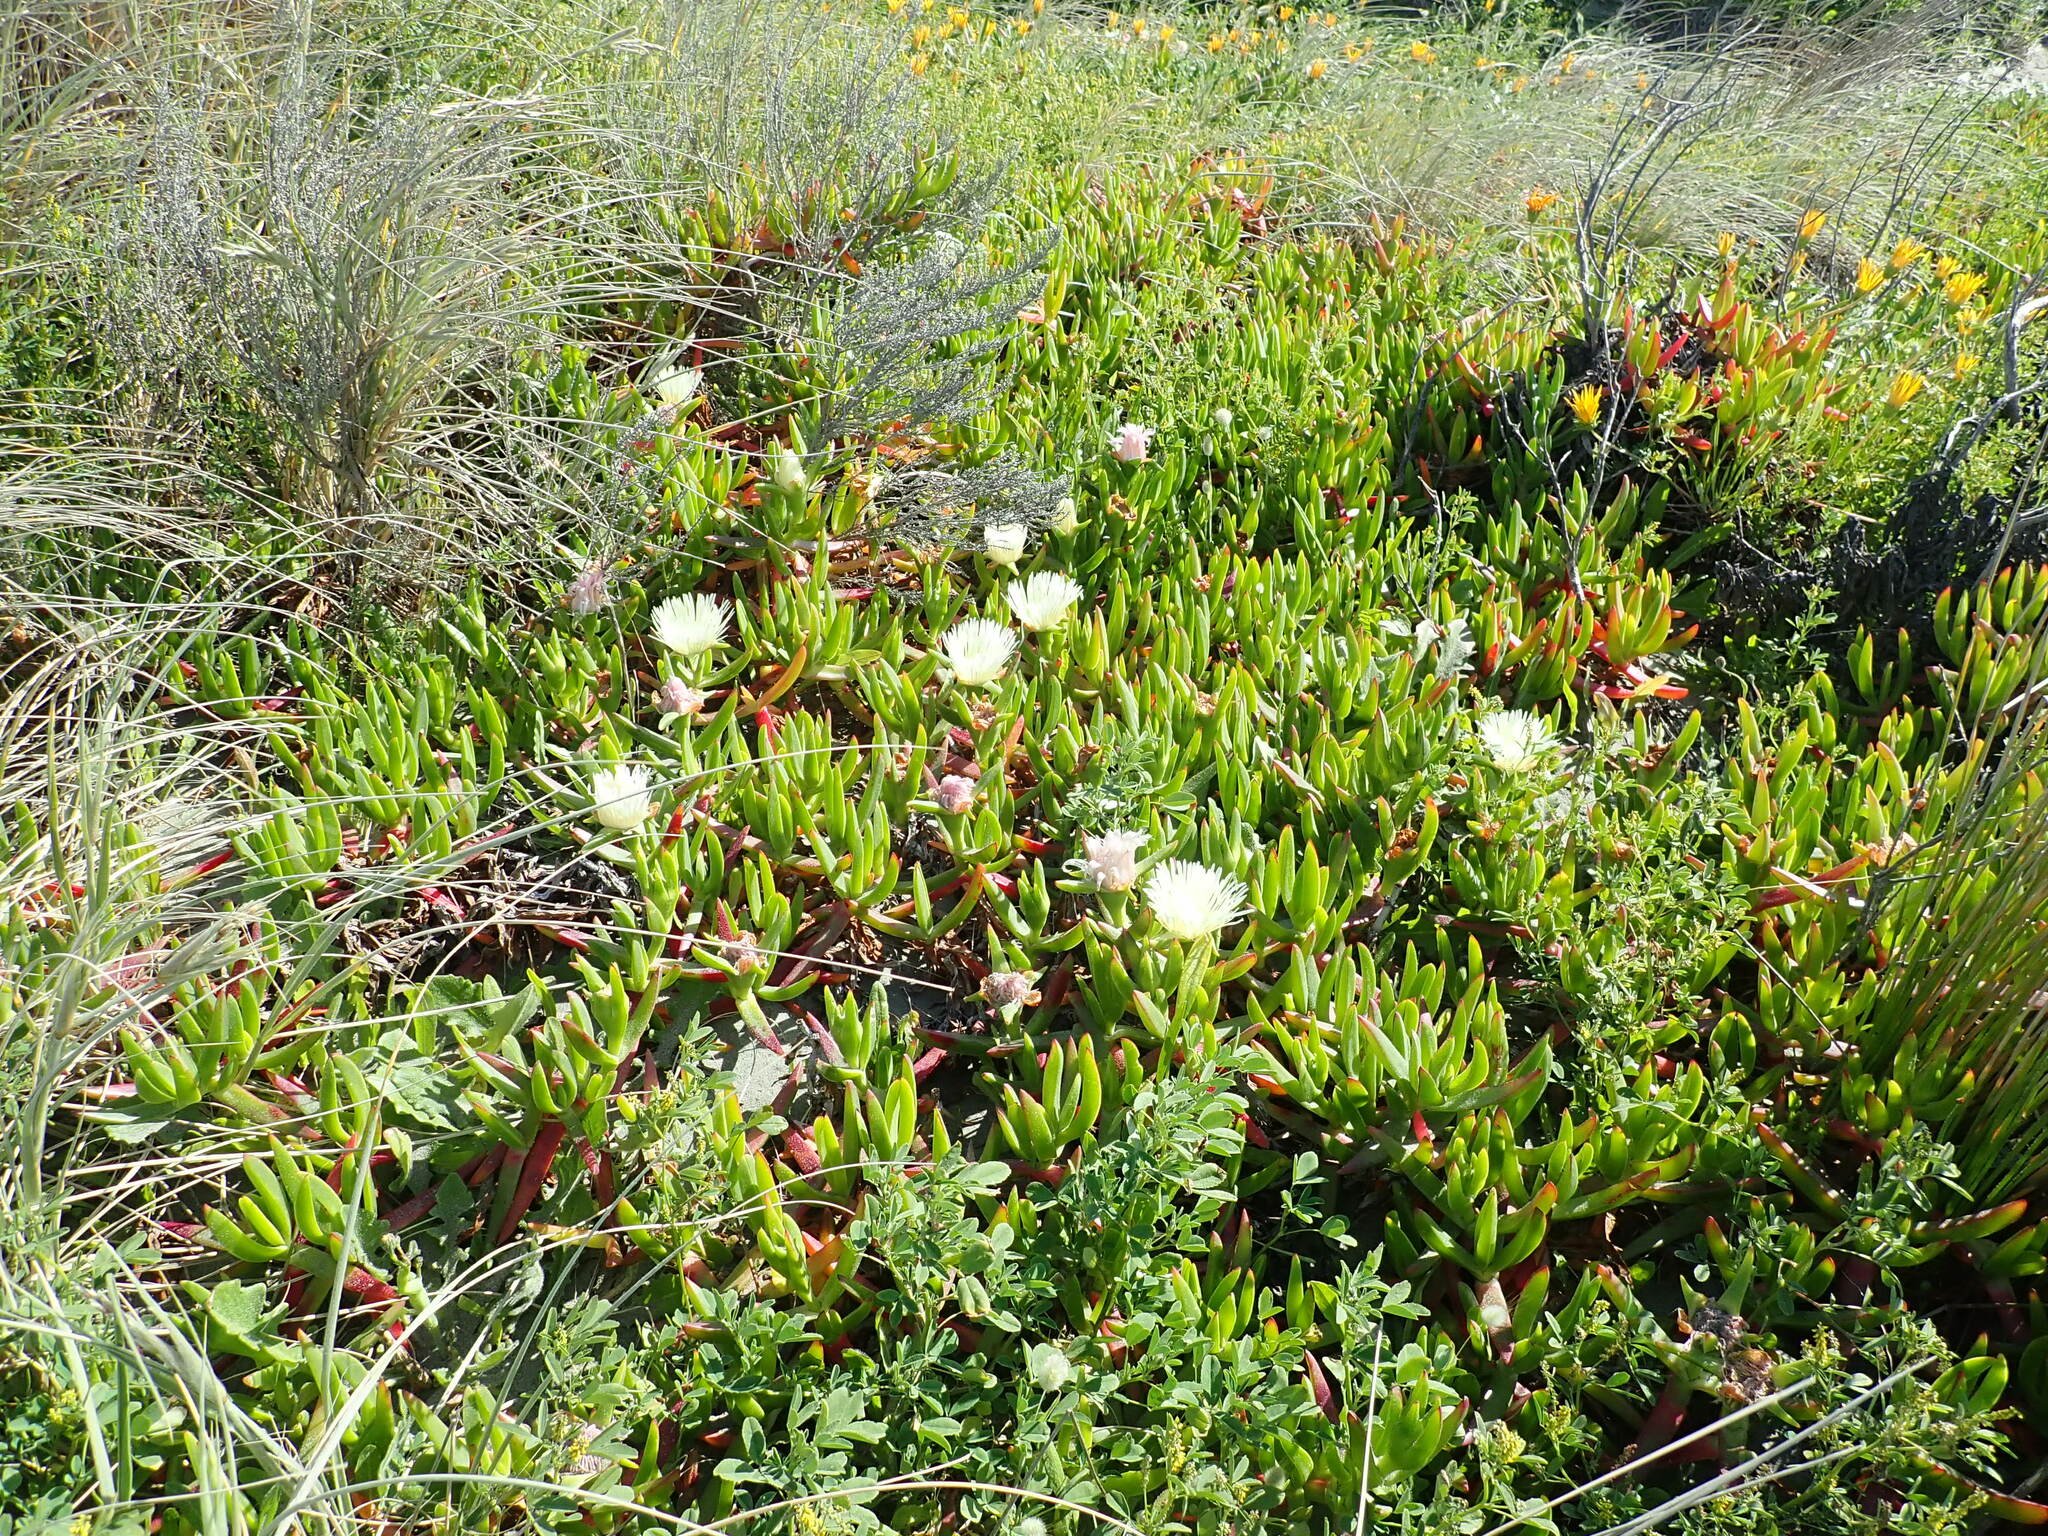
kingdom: Plantae
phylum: Tracheophyta
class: Magnoliopsida
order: Caryophyllales
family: Aizoaceae
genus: Carpobrotus
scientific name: Carpobrotus edulis
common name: Hottentot-fig
